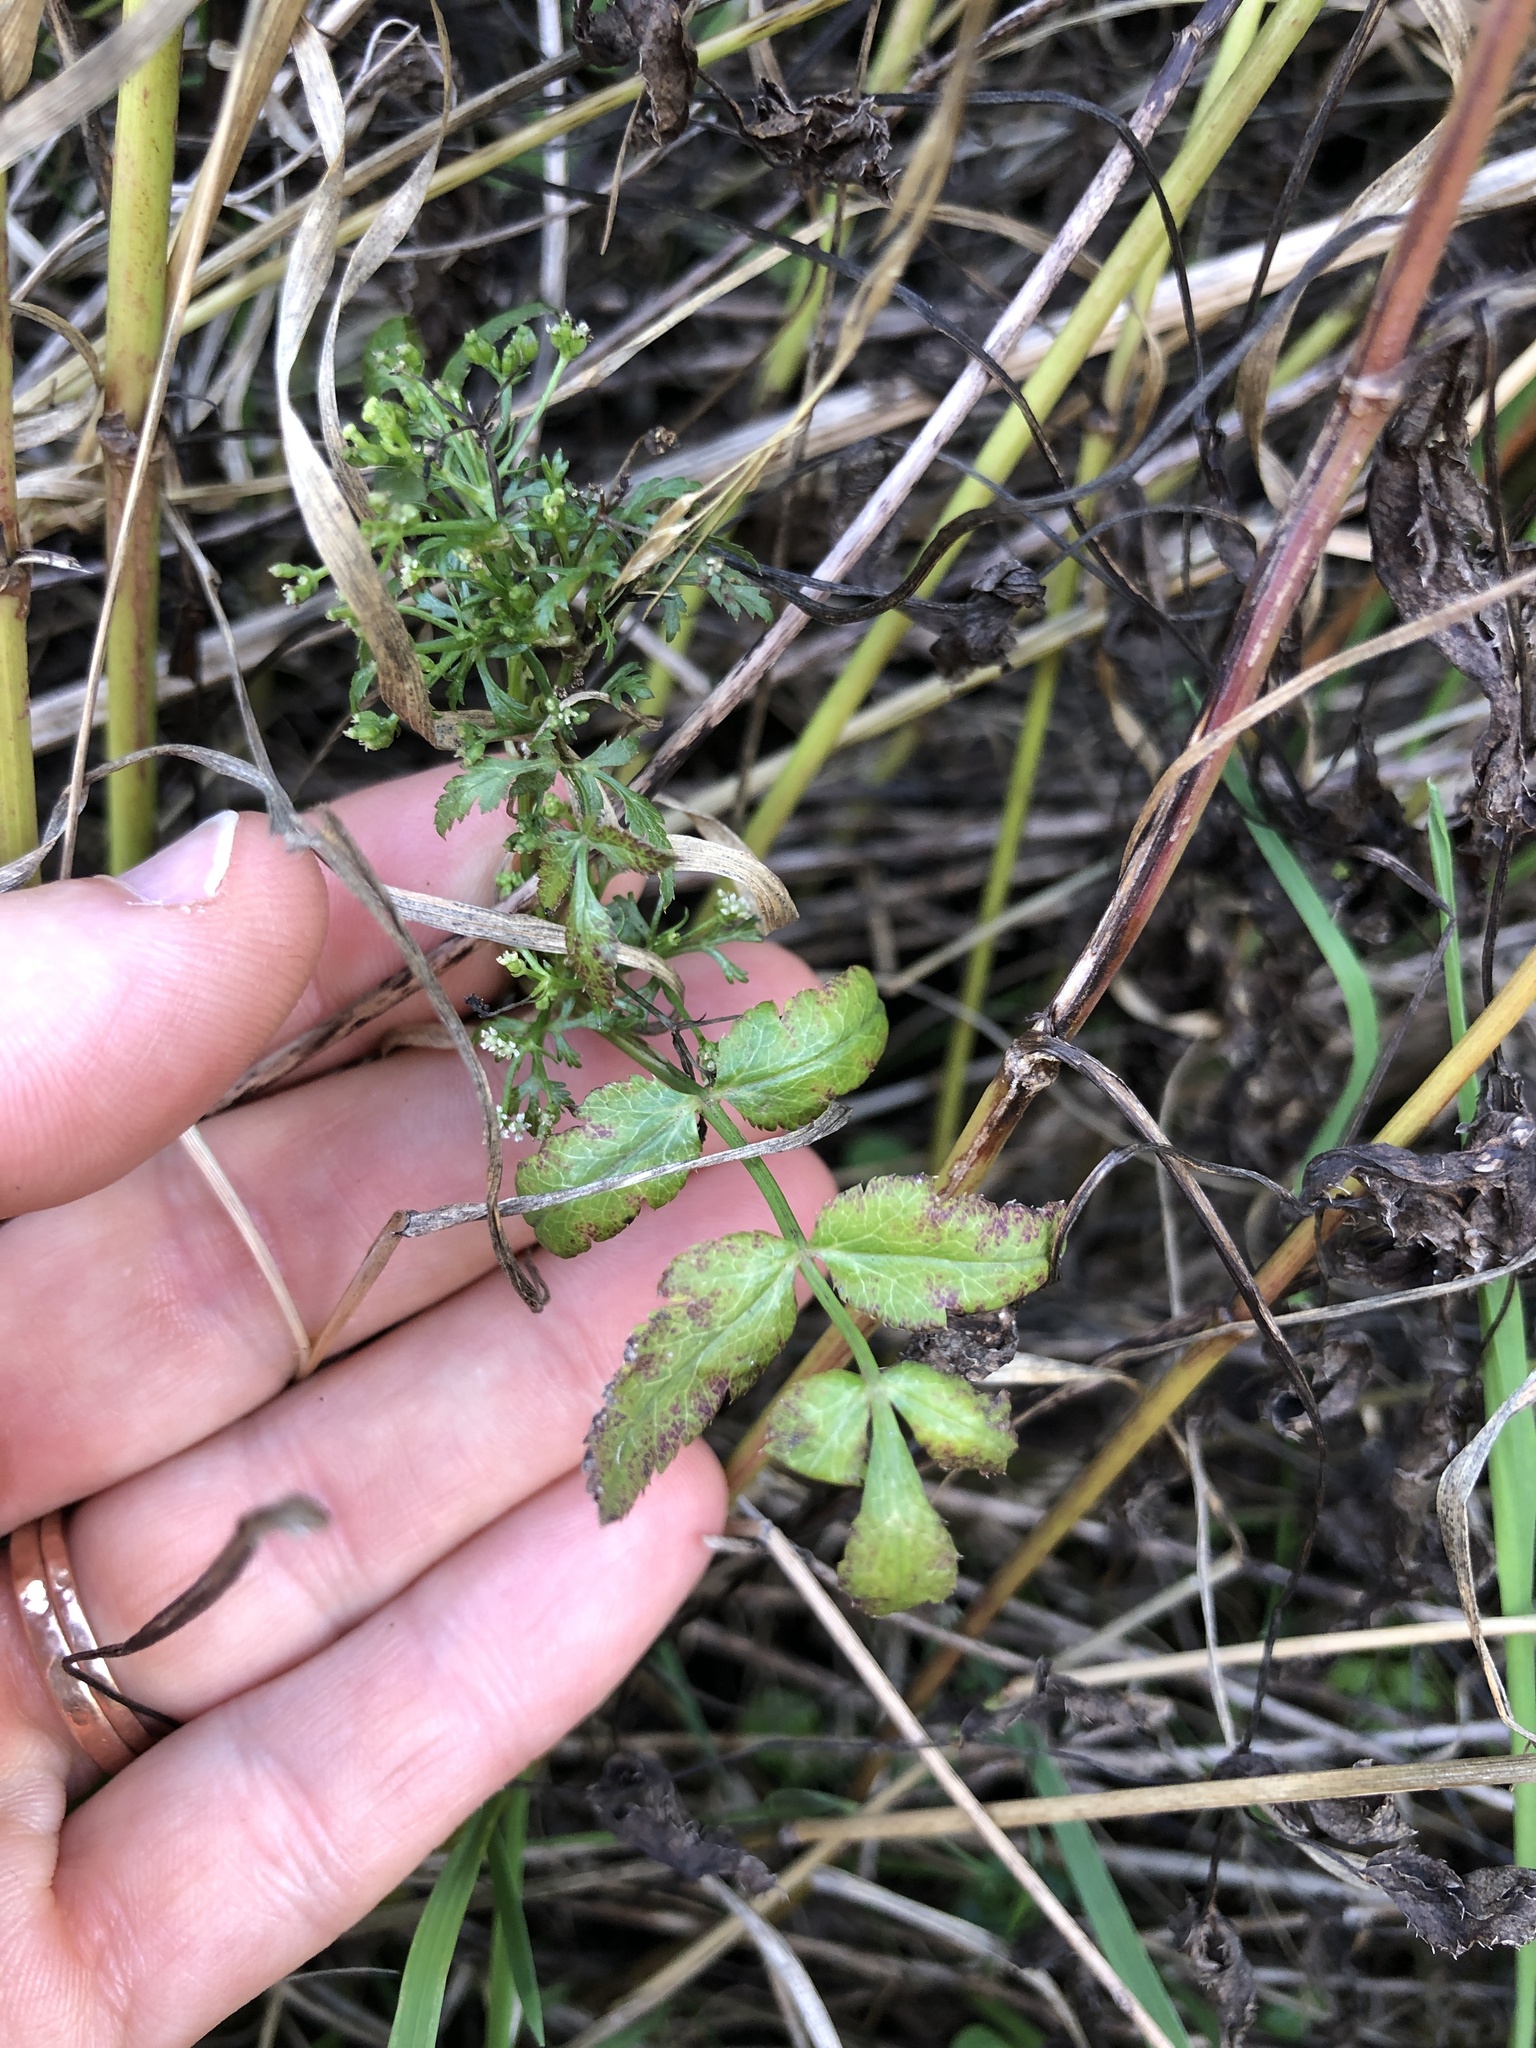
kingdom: Plantae
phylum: Tracheophyta
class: Magnoliopsida
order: Apiales
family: Apiaceae
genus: Sison
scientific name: Sison amomum
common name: Stone-parsley
